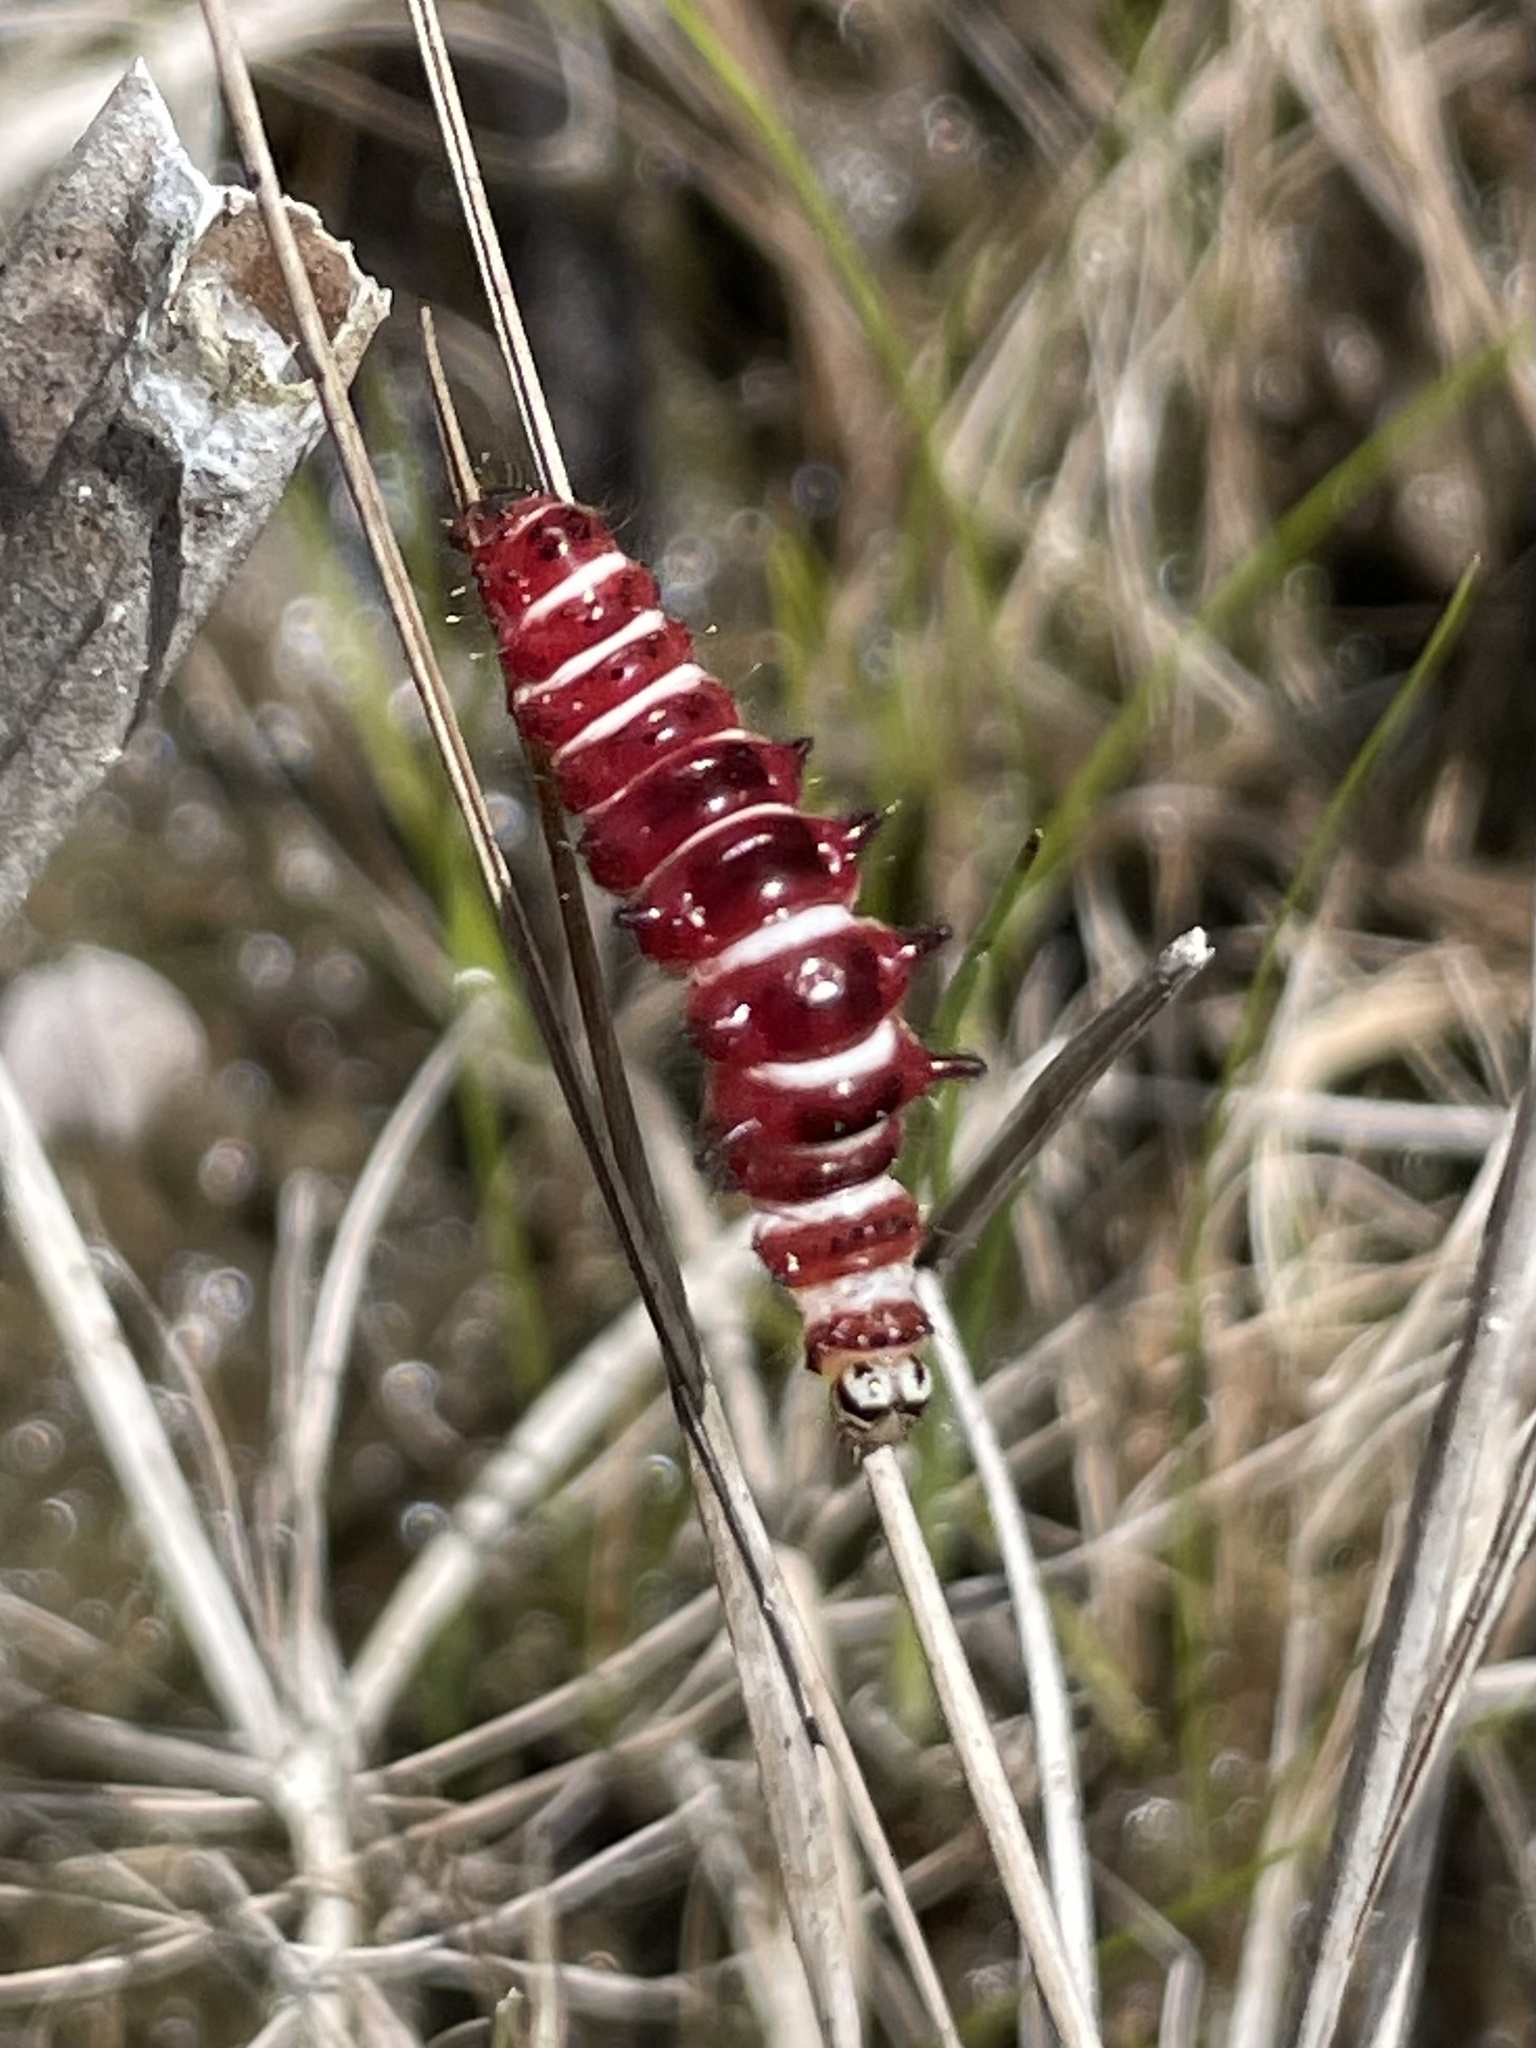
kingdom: Animalia
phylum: Arthropoda
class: Insecta
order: Lepidoptera
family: Noctuidae
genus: Exyra
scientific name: Exyra semicrocea
